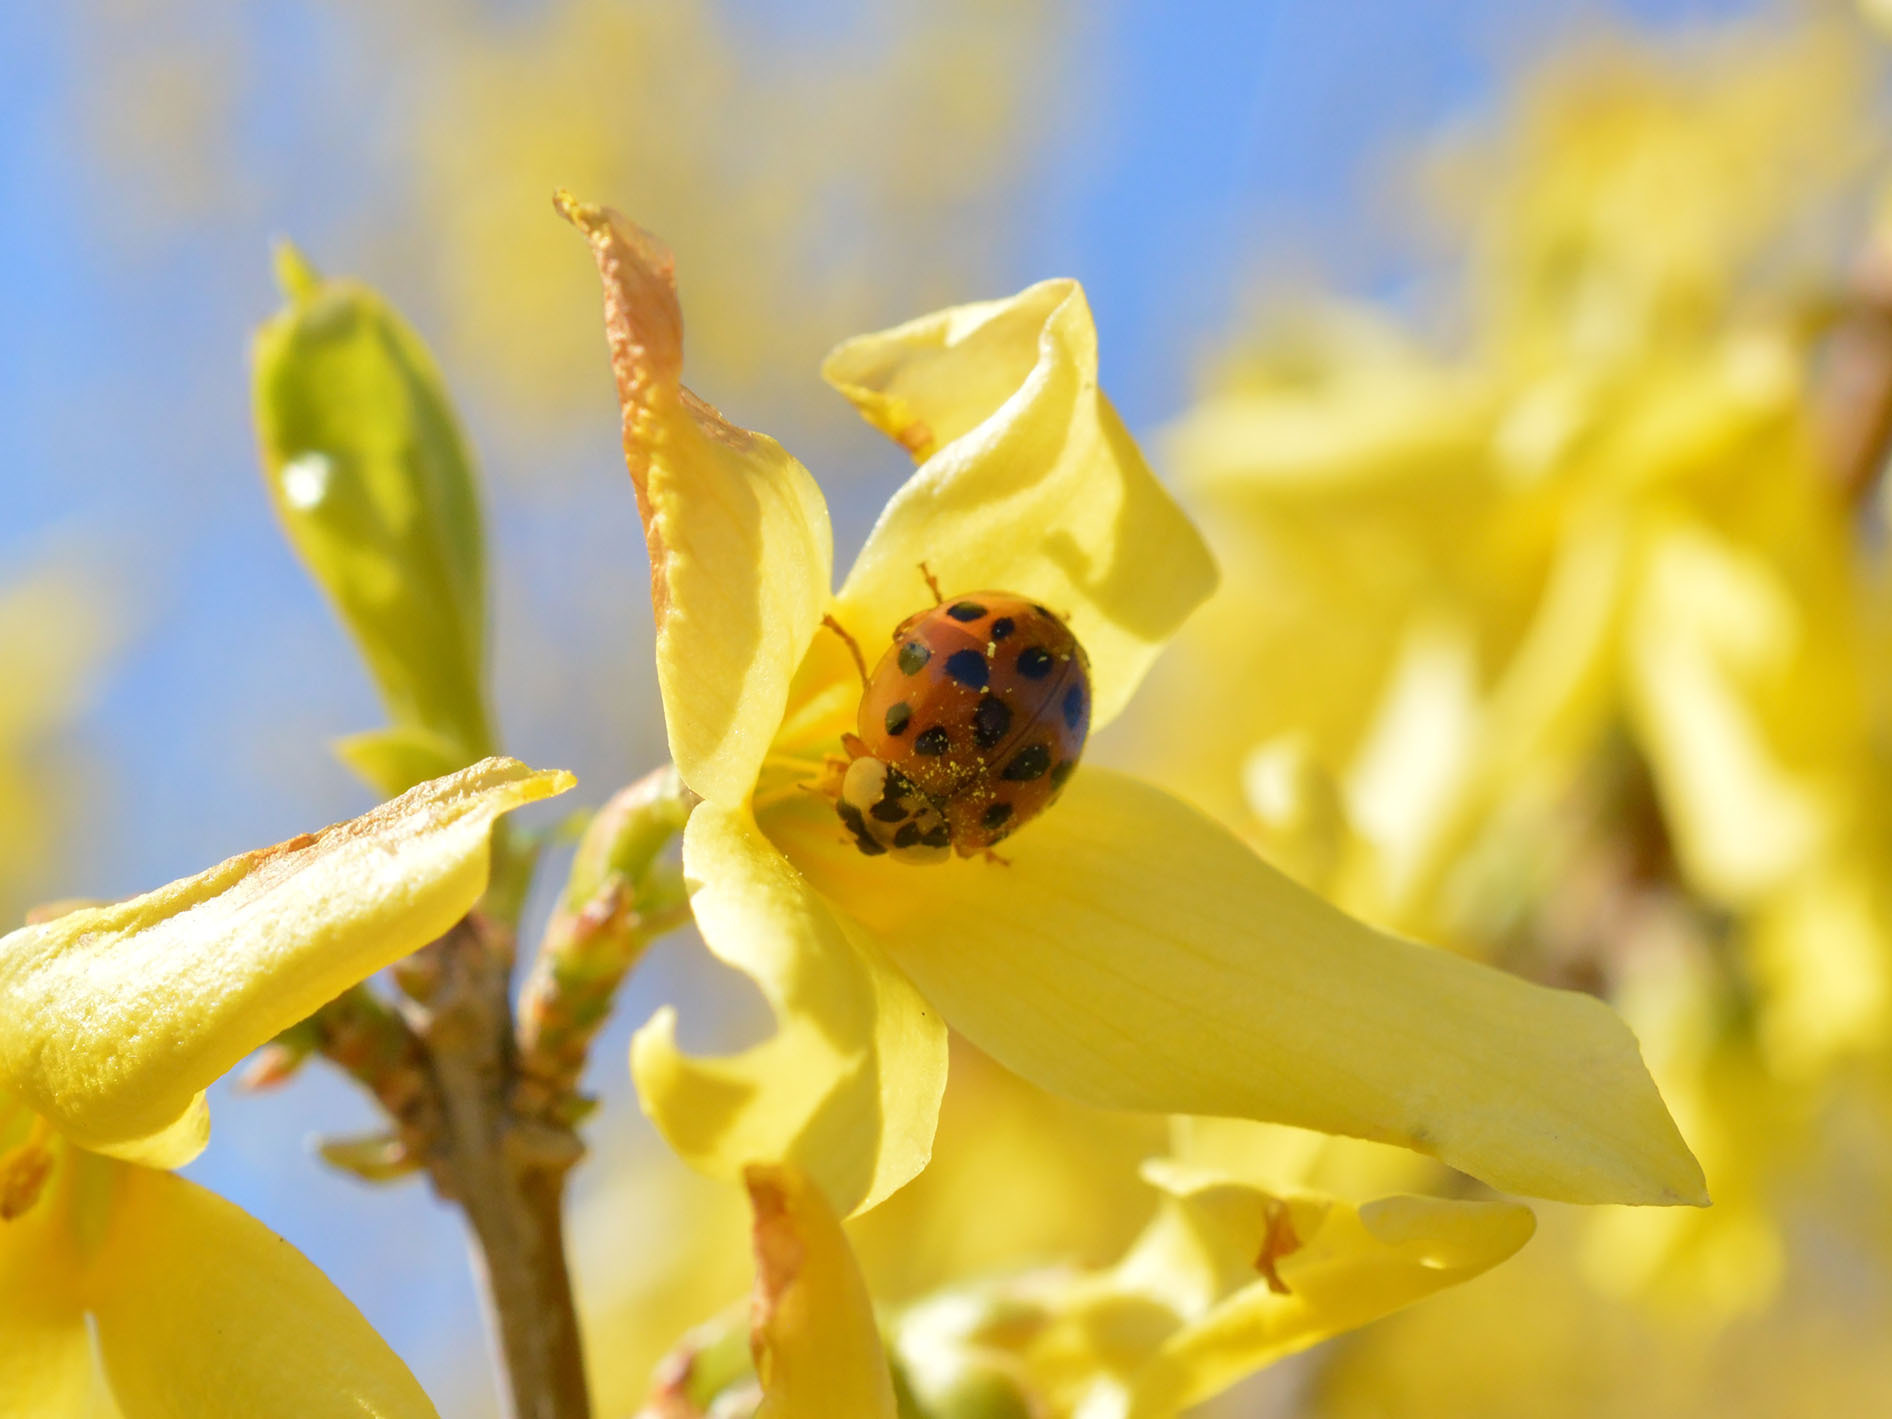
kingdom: Animalia
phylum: Arthropoda
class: Insecta
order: Coleoptera
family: Coccinellidae
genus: Harmonia
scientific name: Harmonia axyridis
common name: Harlequin ladybird
